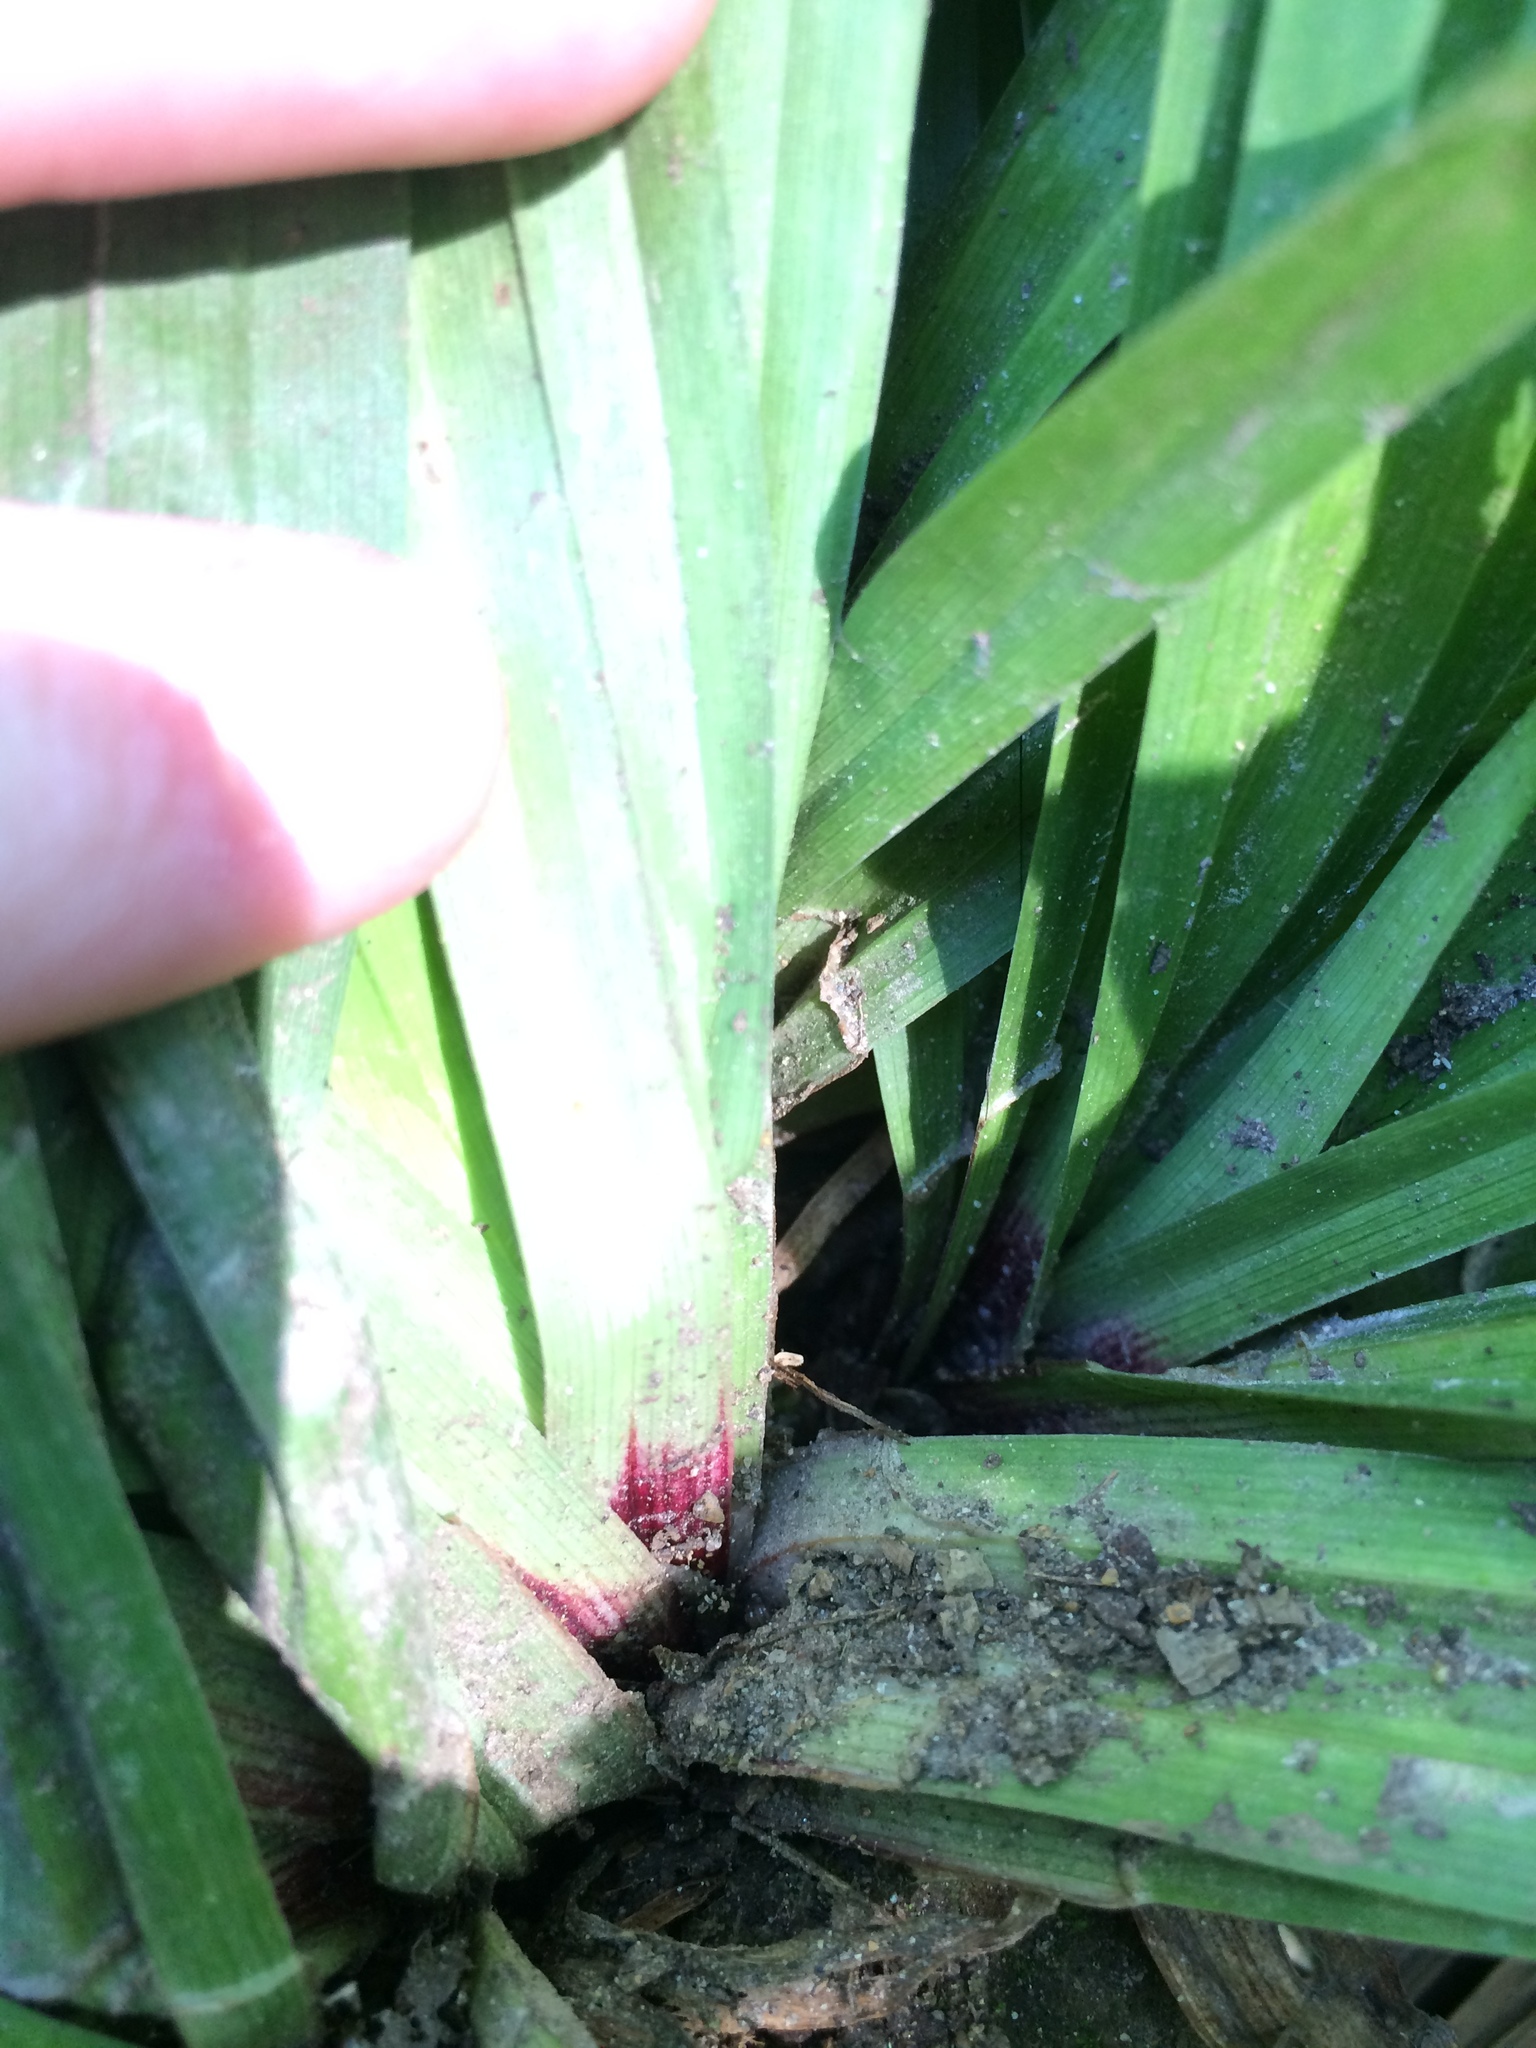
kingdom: Plantae
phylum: Tracheophyta
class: Liliopsida
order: Poales
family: Cyperaceae
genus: Carex
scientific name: Carex plantaginea
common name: Plantain-leaved sedge
